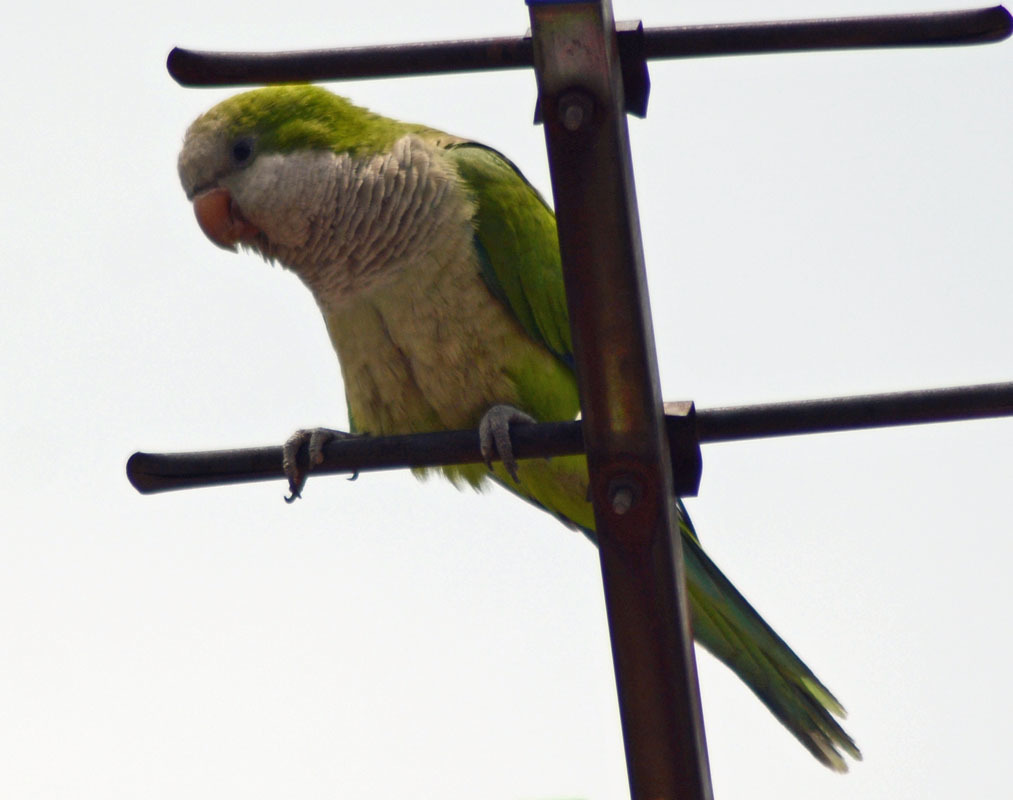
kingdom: Animalia
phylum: Chordata
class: Aves
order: Psittaciformes
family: Psittacidae
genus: Myiopsitta
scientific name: Myiopsitta monachus
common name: Monk parakeet
